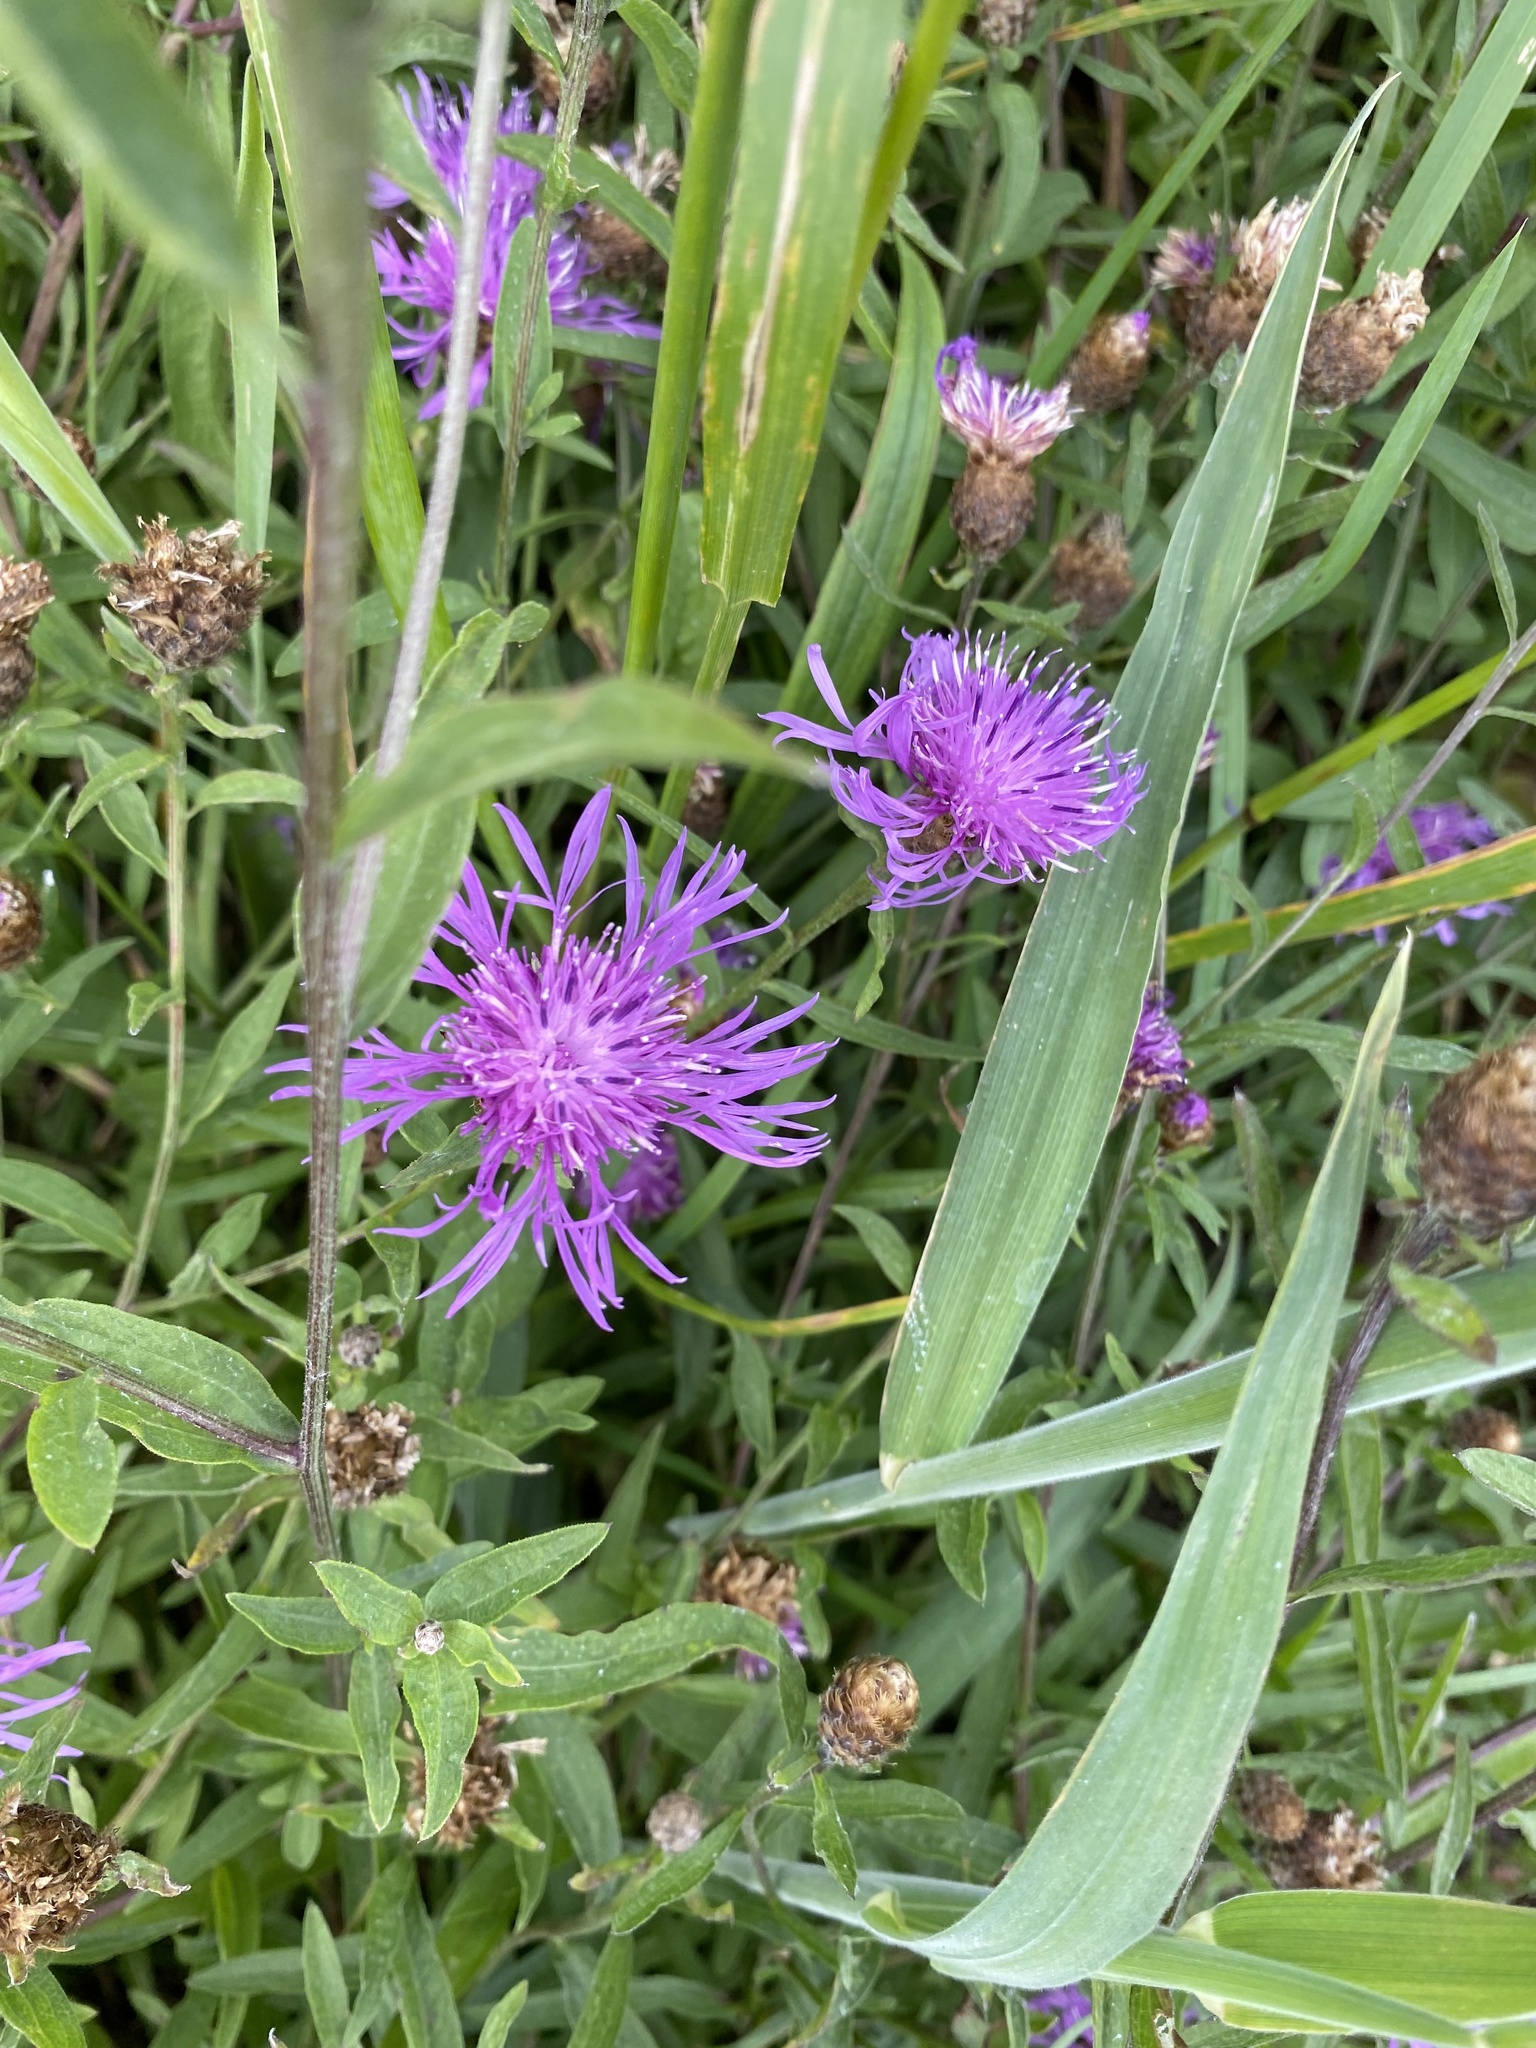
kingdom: Plantae
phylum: Tracheophyta
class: Magnoliopsida
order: Asterales
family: Asteraceae
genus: Centaurea
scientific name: Centaurea nigra
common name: Lesser knapweed
